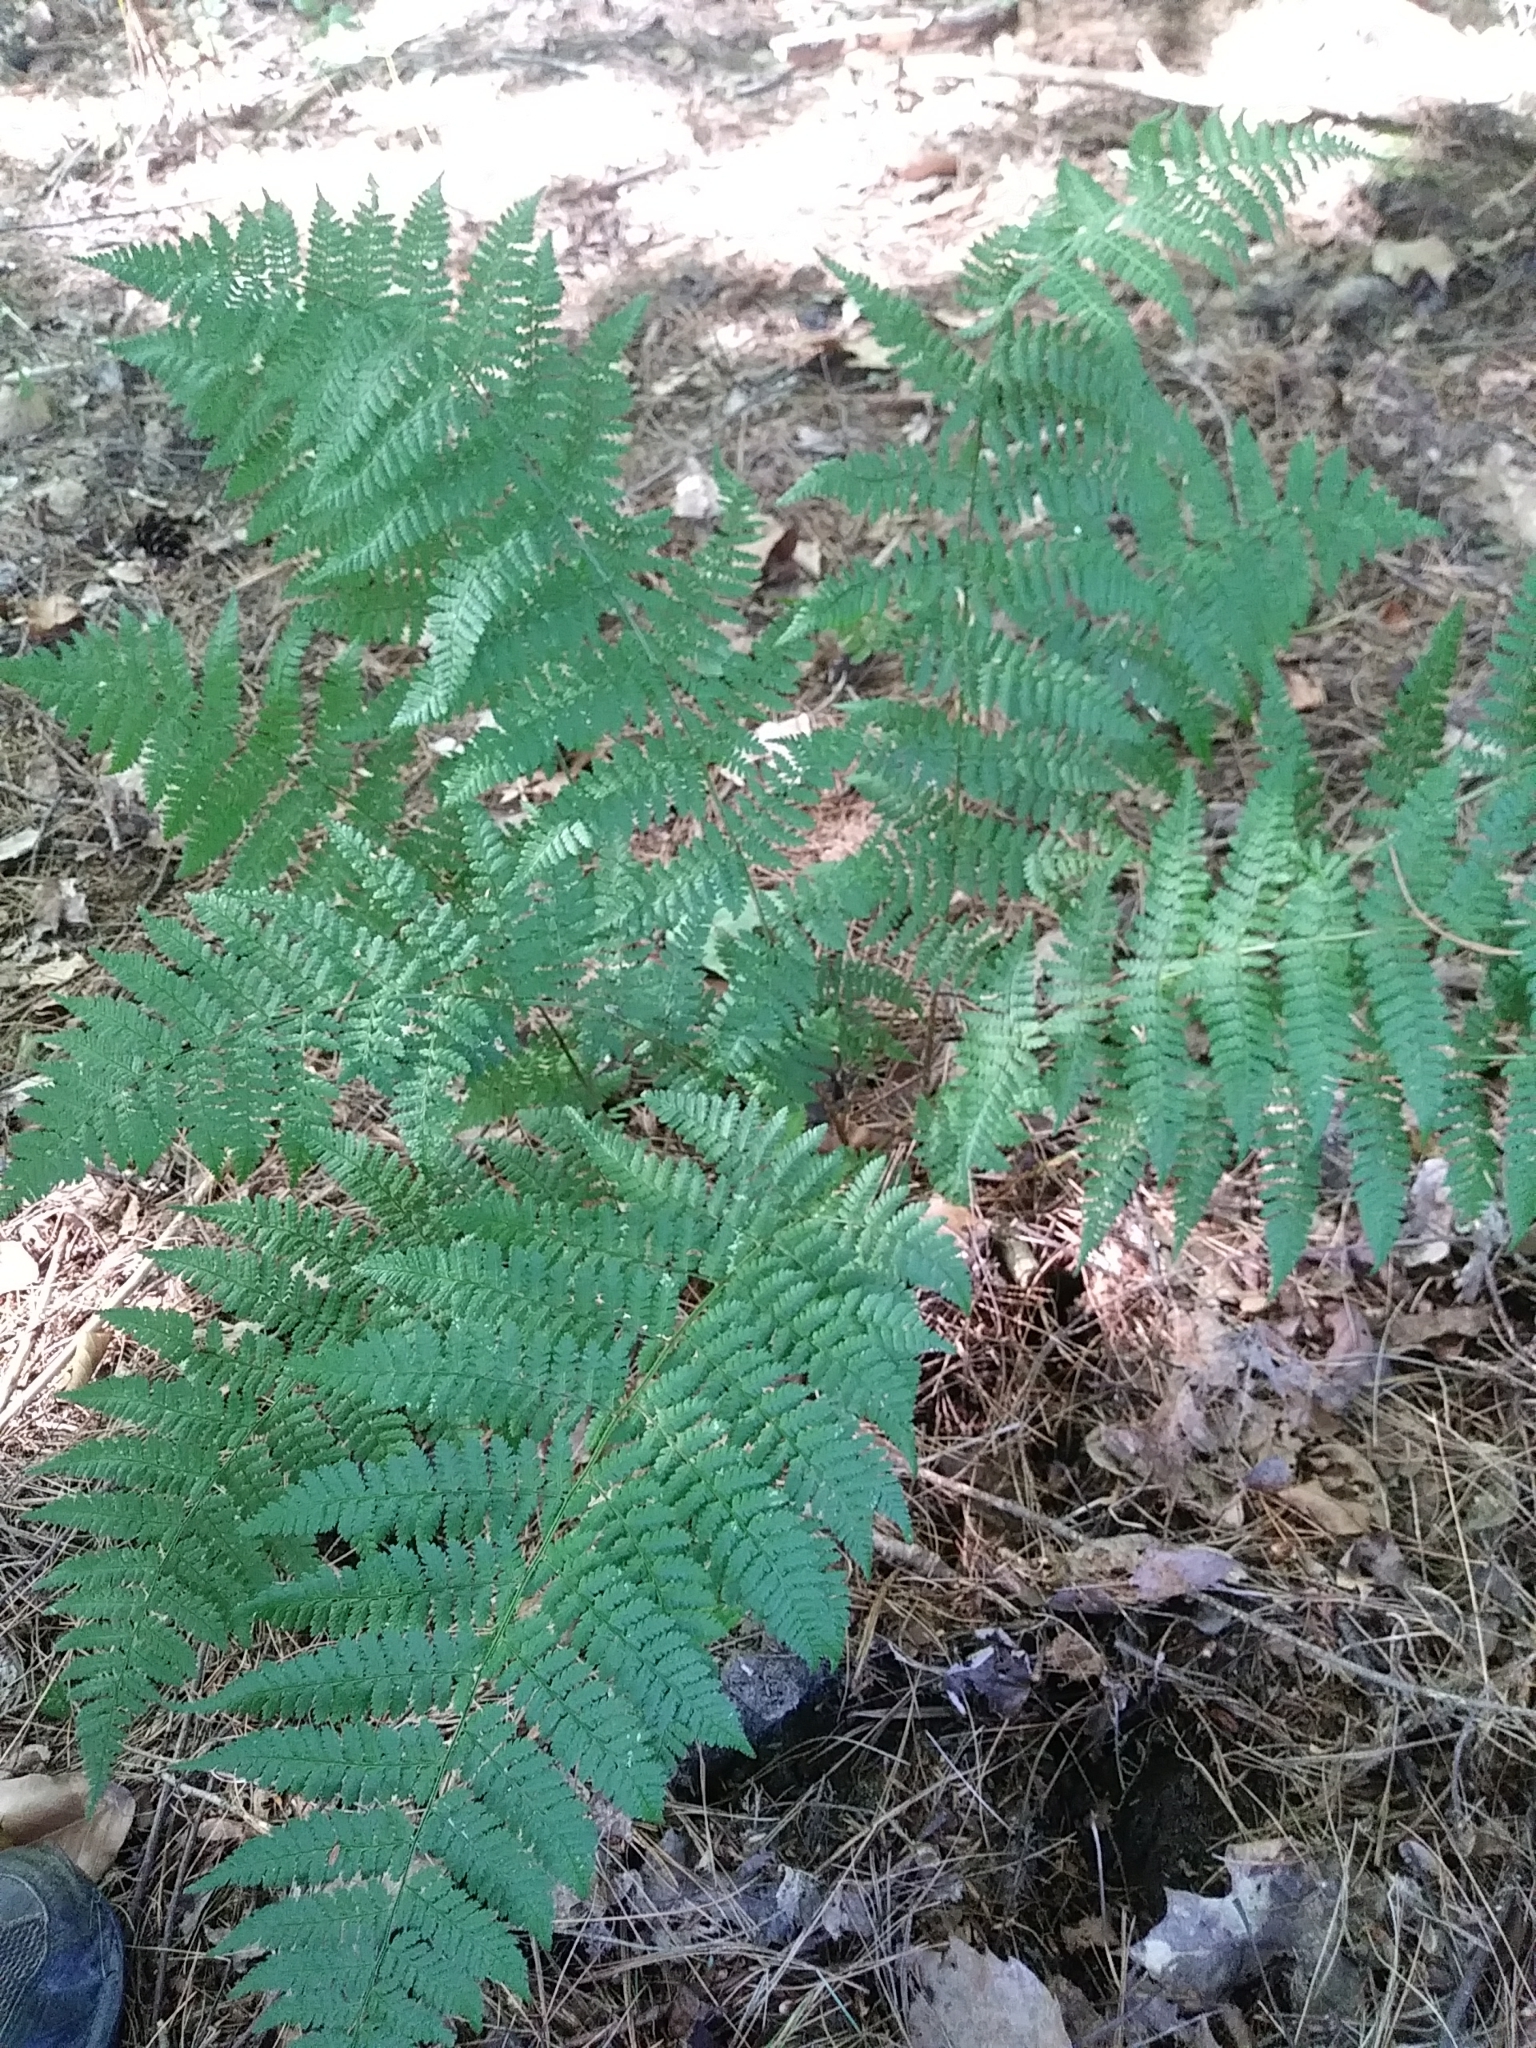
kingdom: Plantae
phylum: Tracheophyta
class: Polypodiopsida
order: Polypodiales
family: Dryopteridaceae
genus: Dryopteris
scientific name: Dryopteris intermedia
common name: Evergreen wood fern
